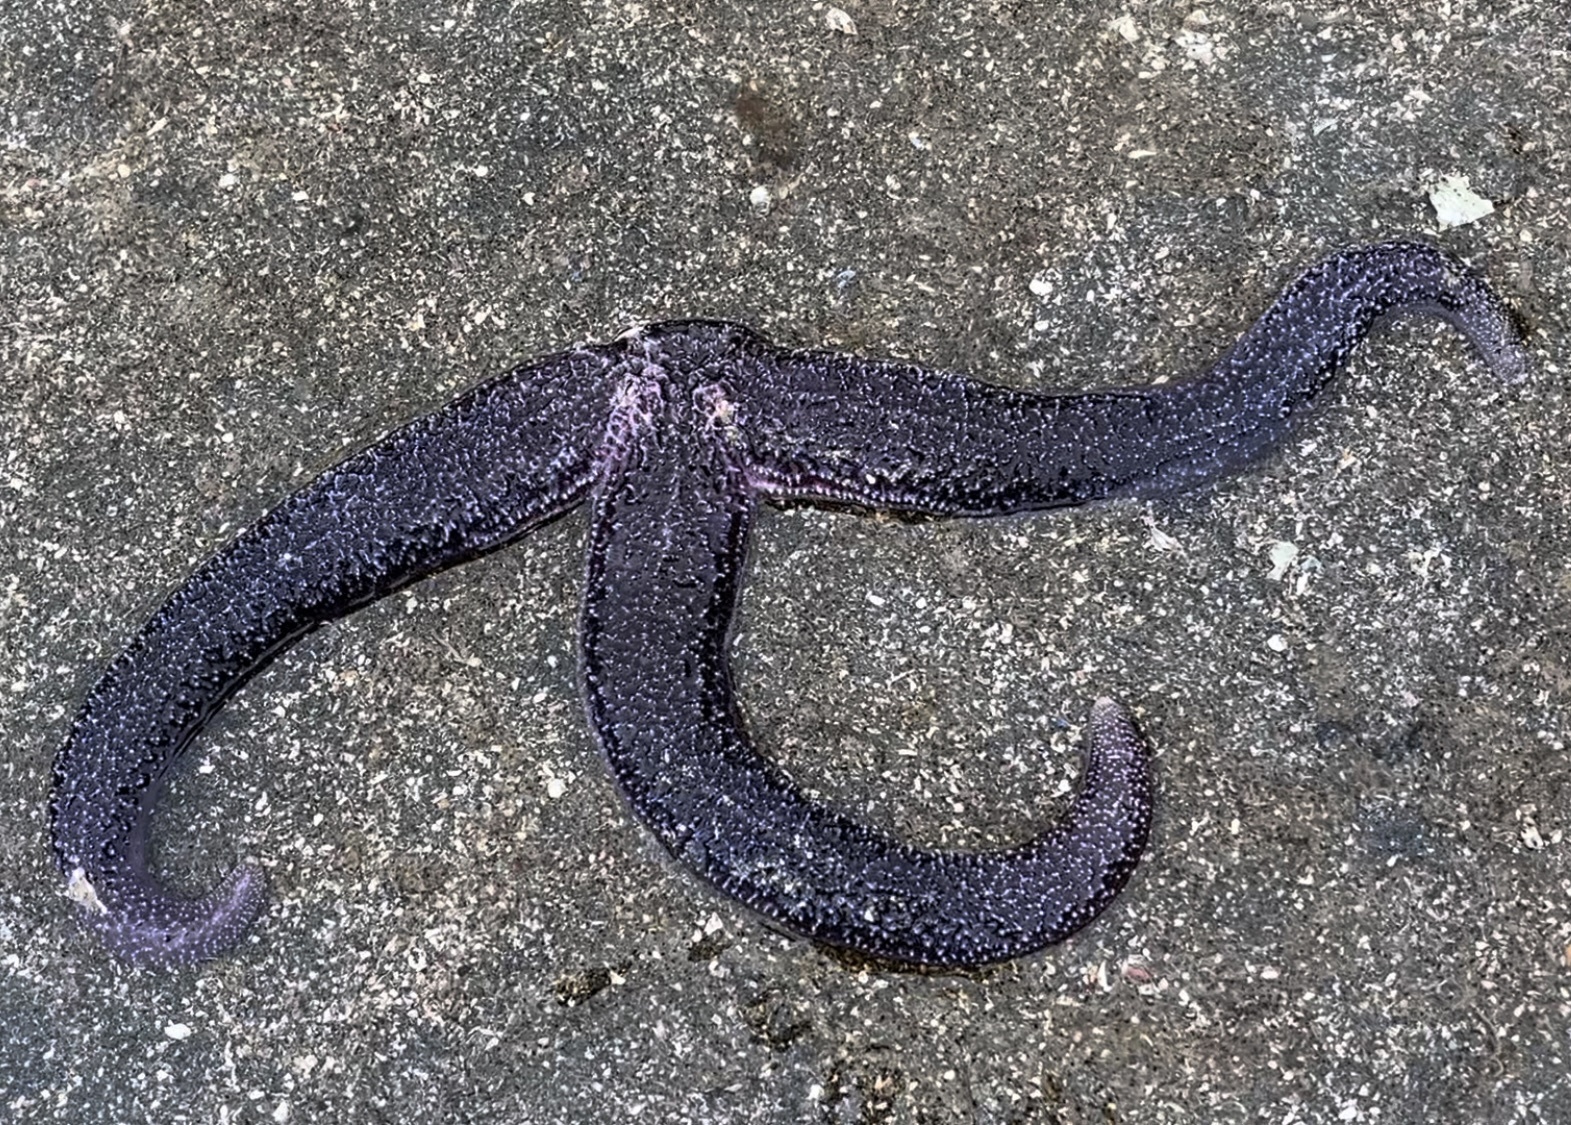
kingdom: Animalia
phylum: Echinodermata
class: Asteroidea
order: Forcipulatida
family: Asteriidae
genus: Evasterias
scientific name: Evasterias troschelii
